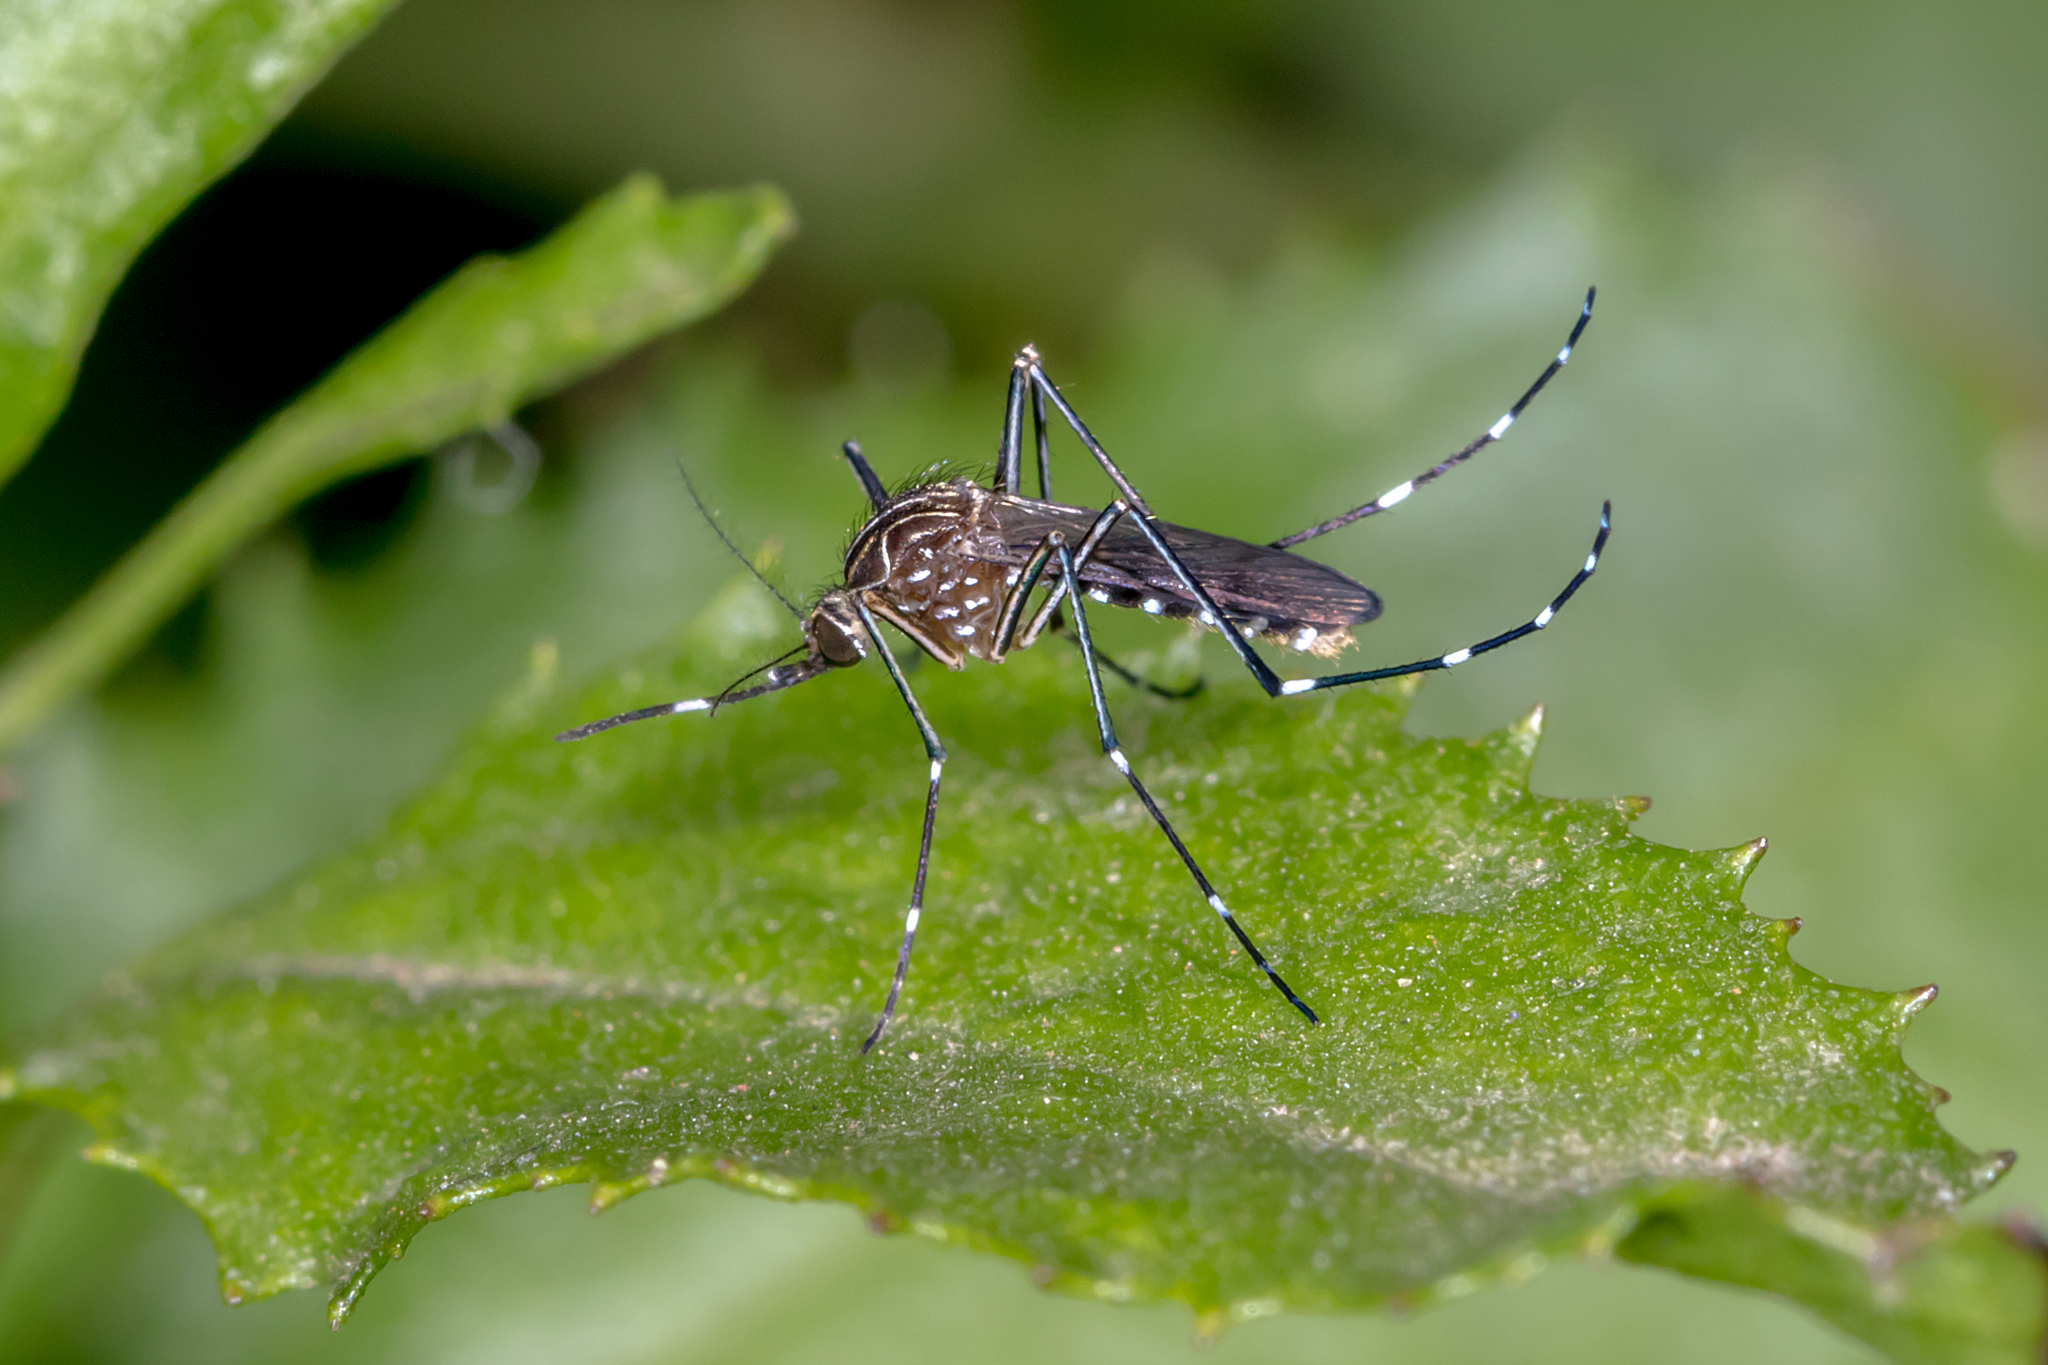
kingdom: Animalia
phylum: Arthropoda
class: Insecta
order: Diptera
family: Culicidae
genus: Aedes
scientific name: Aedes notoscriptus
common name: Australian backyard mosquito
